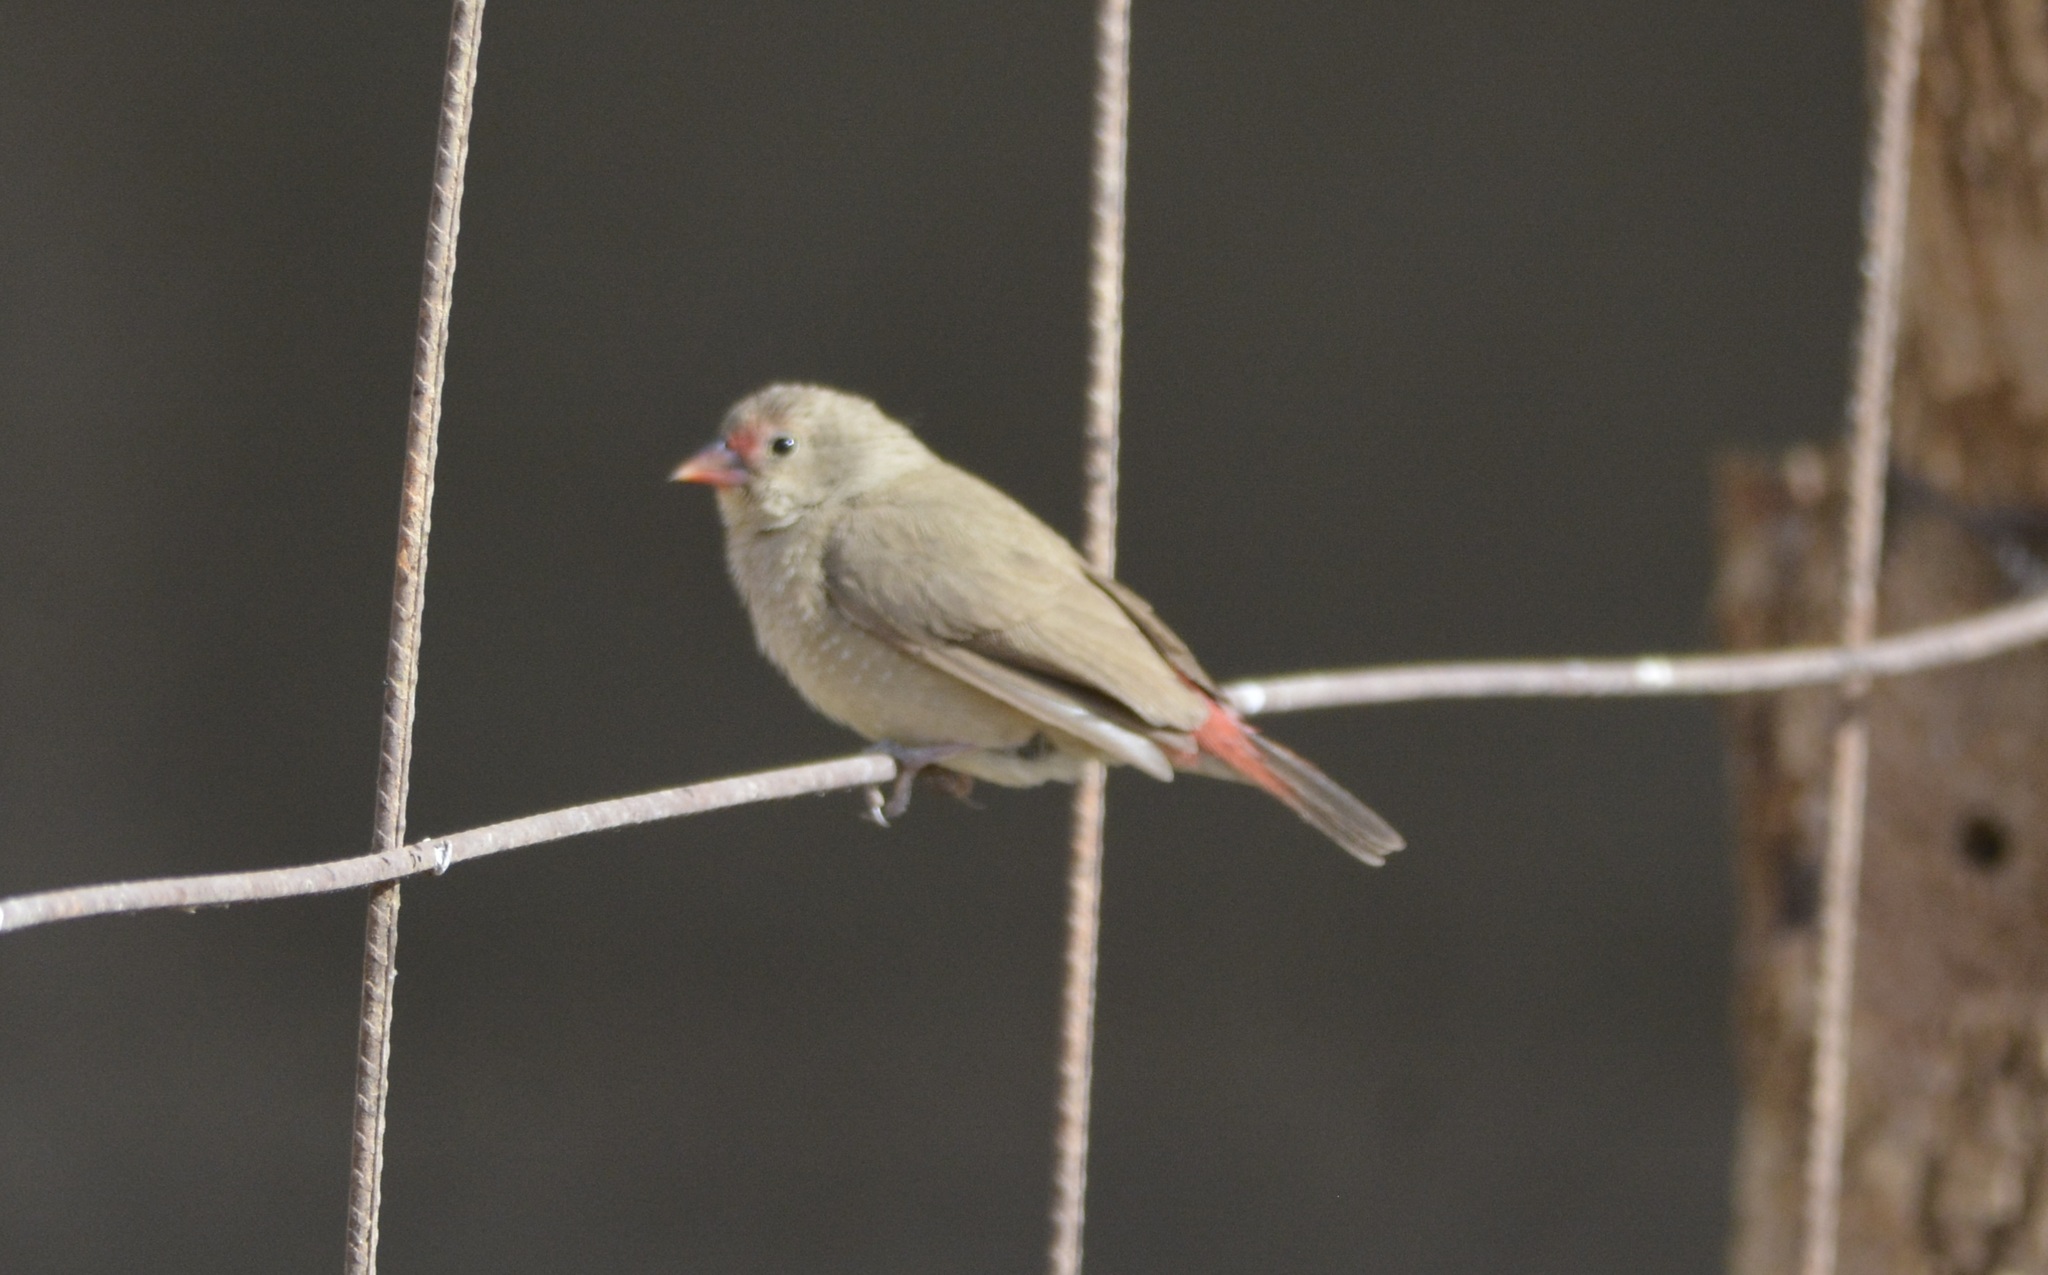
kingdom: Animalia
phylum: Chordata
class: Aves
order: Passeriformes
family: Estrildidae
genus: Lagonosticta
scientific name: Lagonosticta senegala
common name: Red-billed firefinch
